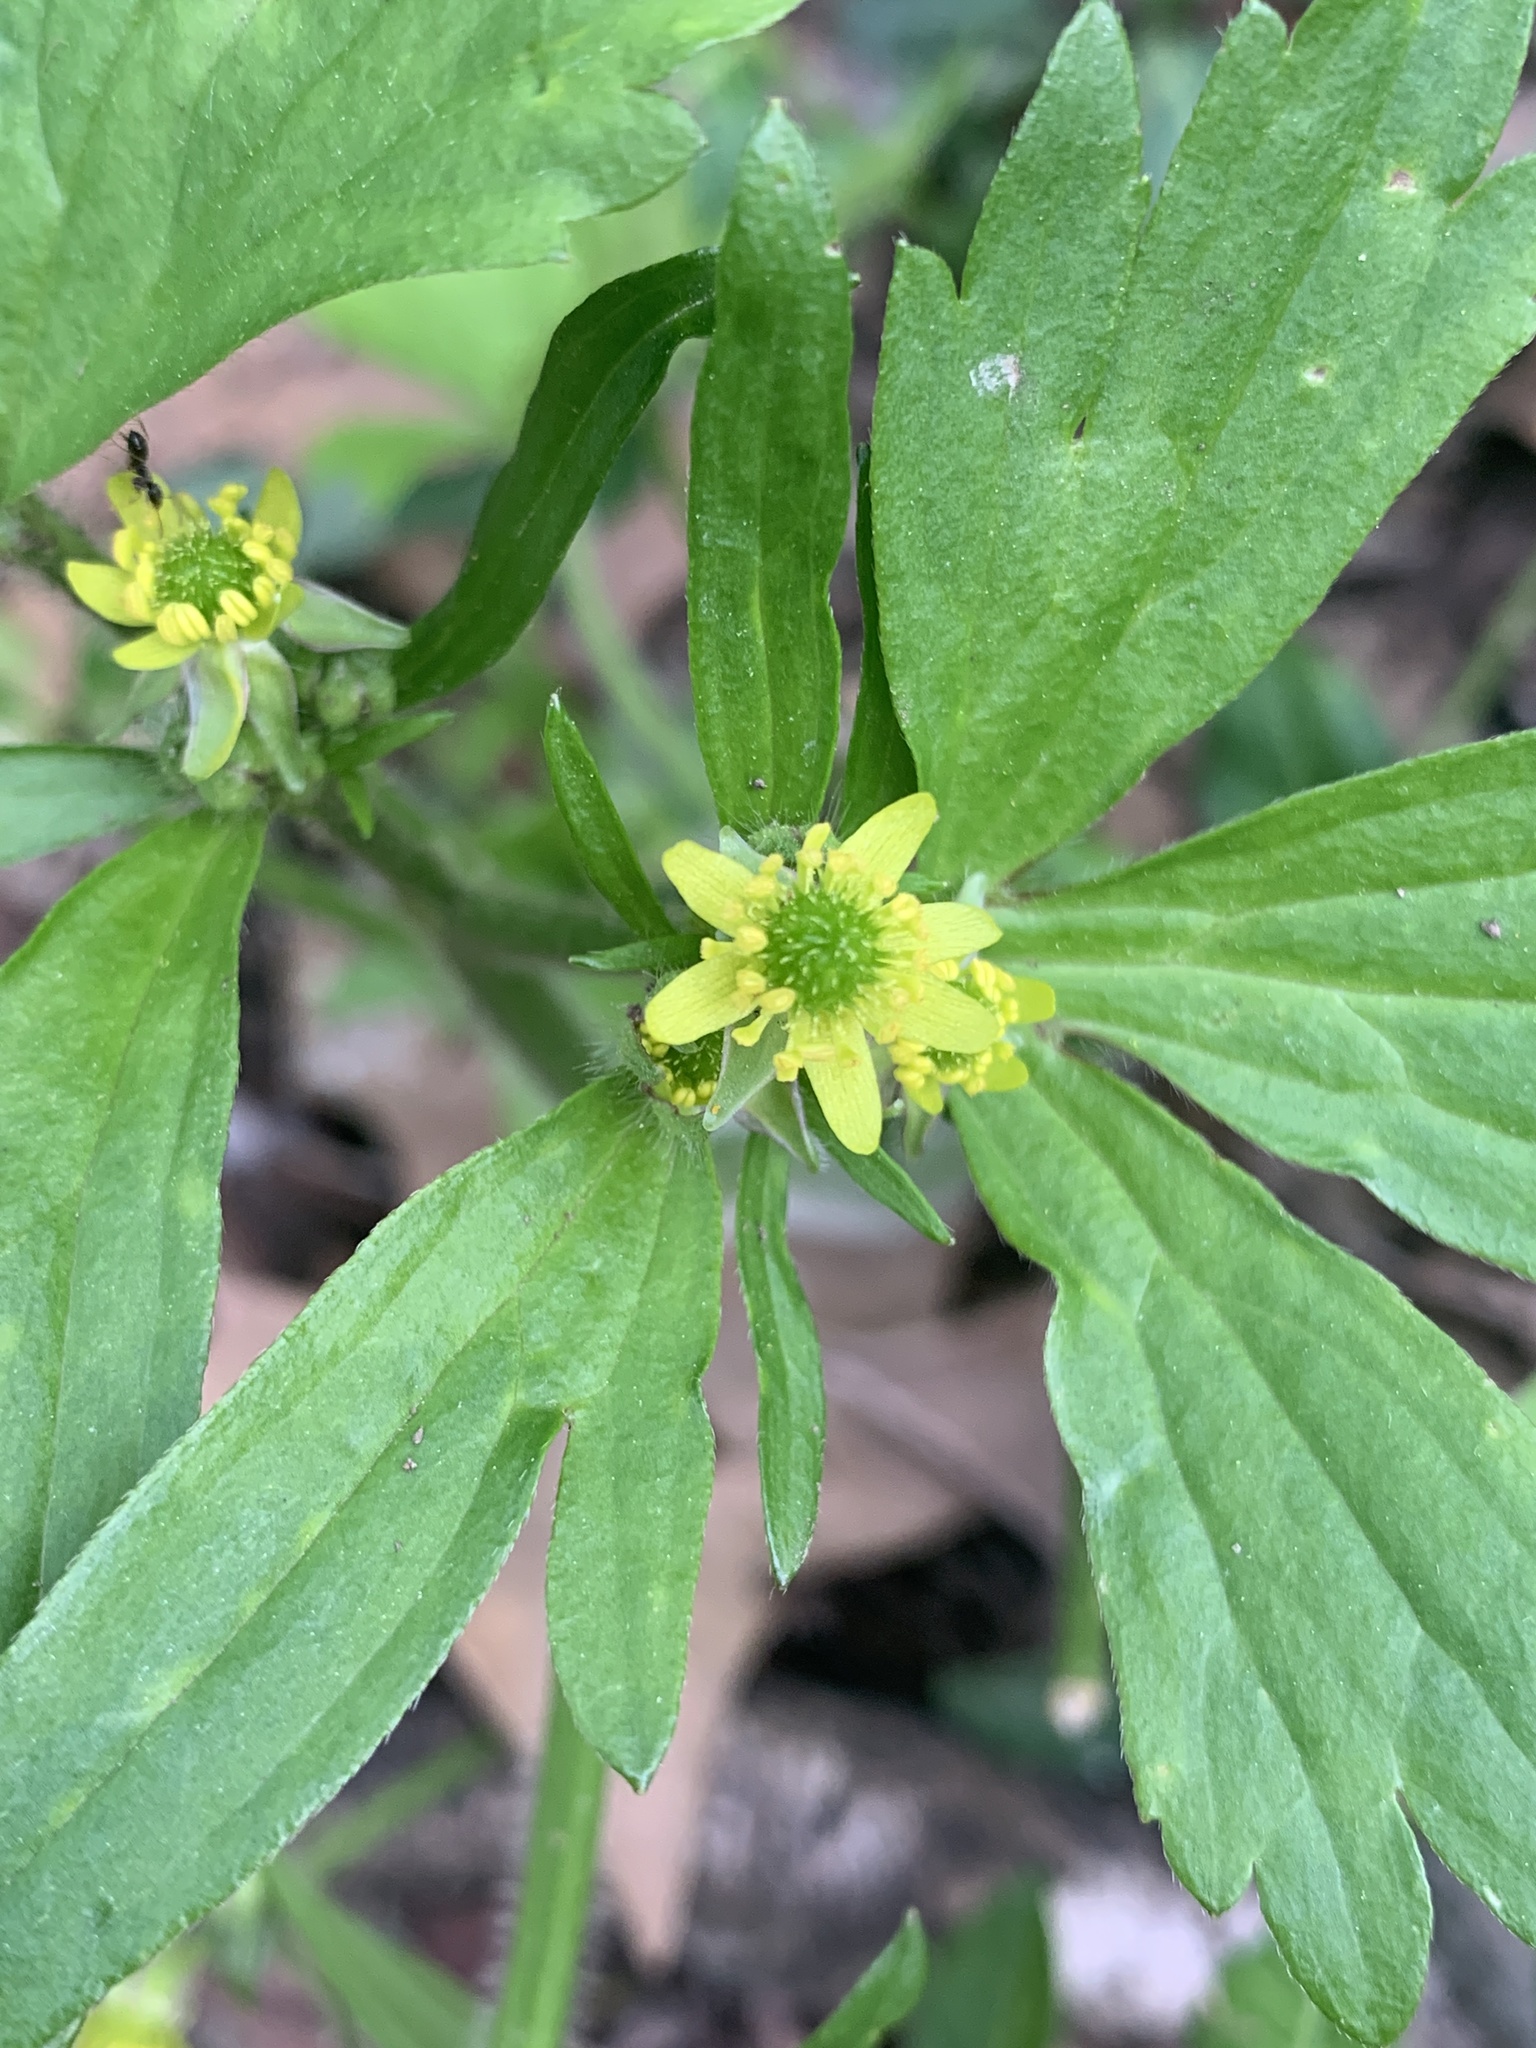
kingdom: Plantae
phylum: Tracheophyta
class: Magnoliopsida
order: Ranunculales
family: Ranunculaceae
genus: Ranunculus
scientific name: Ranunculus recurvatus
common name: Blisterwort
